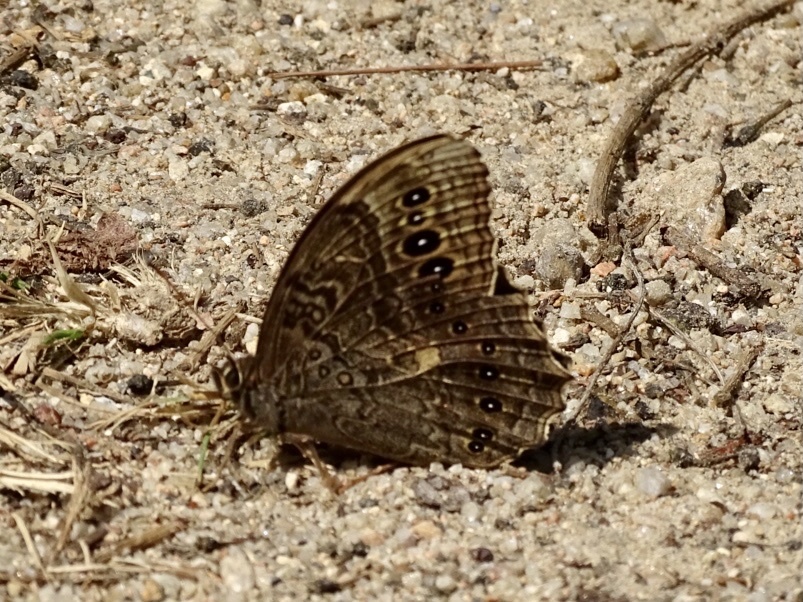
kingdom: Animalia
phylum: Arthropoda
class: Insecta
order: Lepidoptera
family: Nymphalidae
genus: Neope
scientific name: Neope muirheadii
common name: Black-spotted labyrinth
